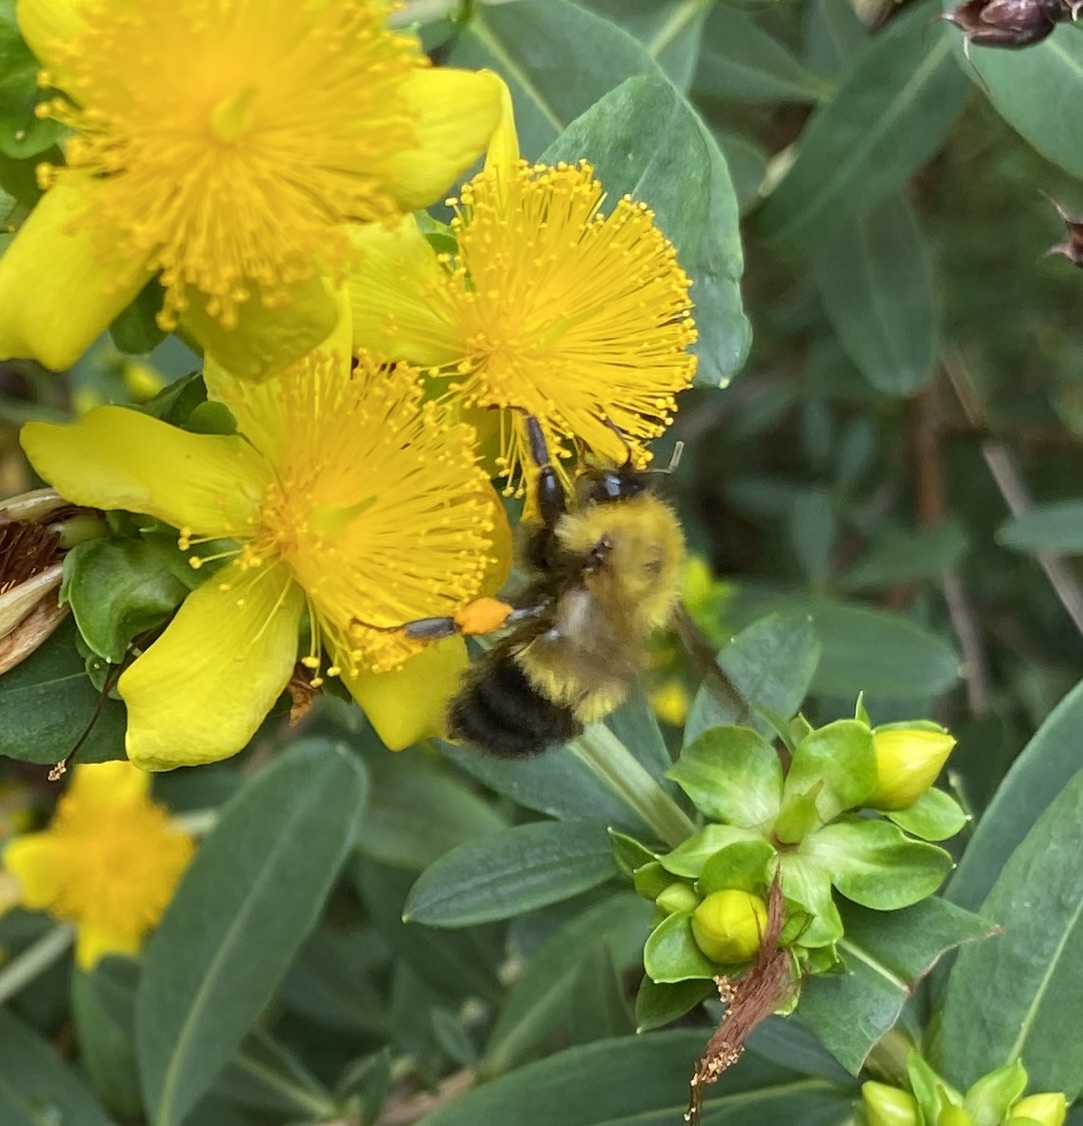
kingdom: Animalia
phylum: Arthropoda
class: Insecta
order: Hymenoptera
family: Apidae
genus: Bombus
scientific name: Bombus perplexus
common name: Confusing bumble bee
